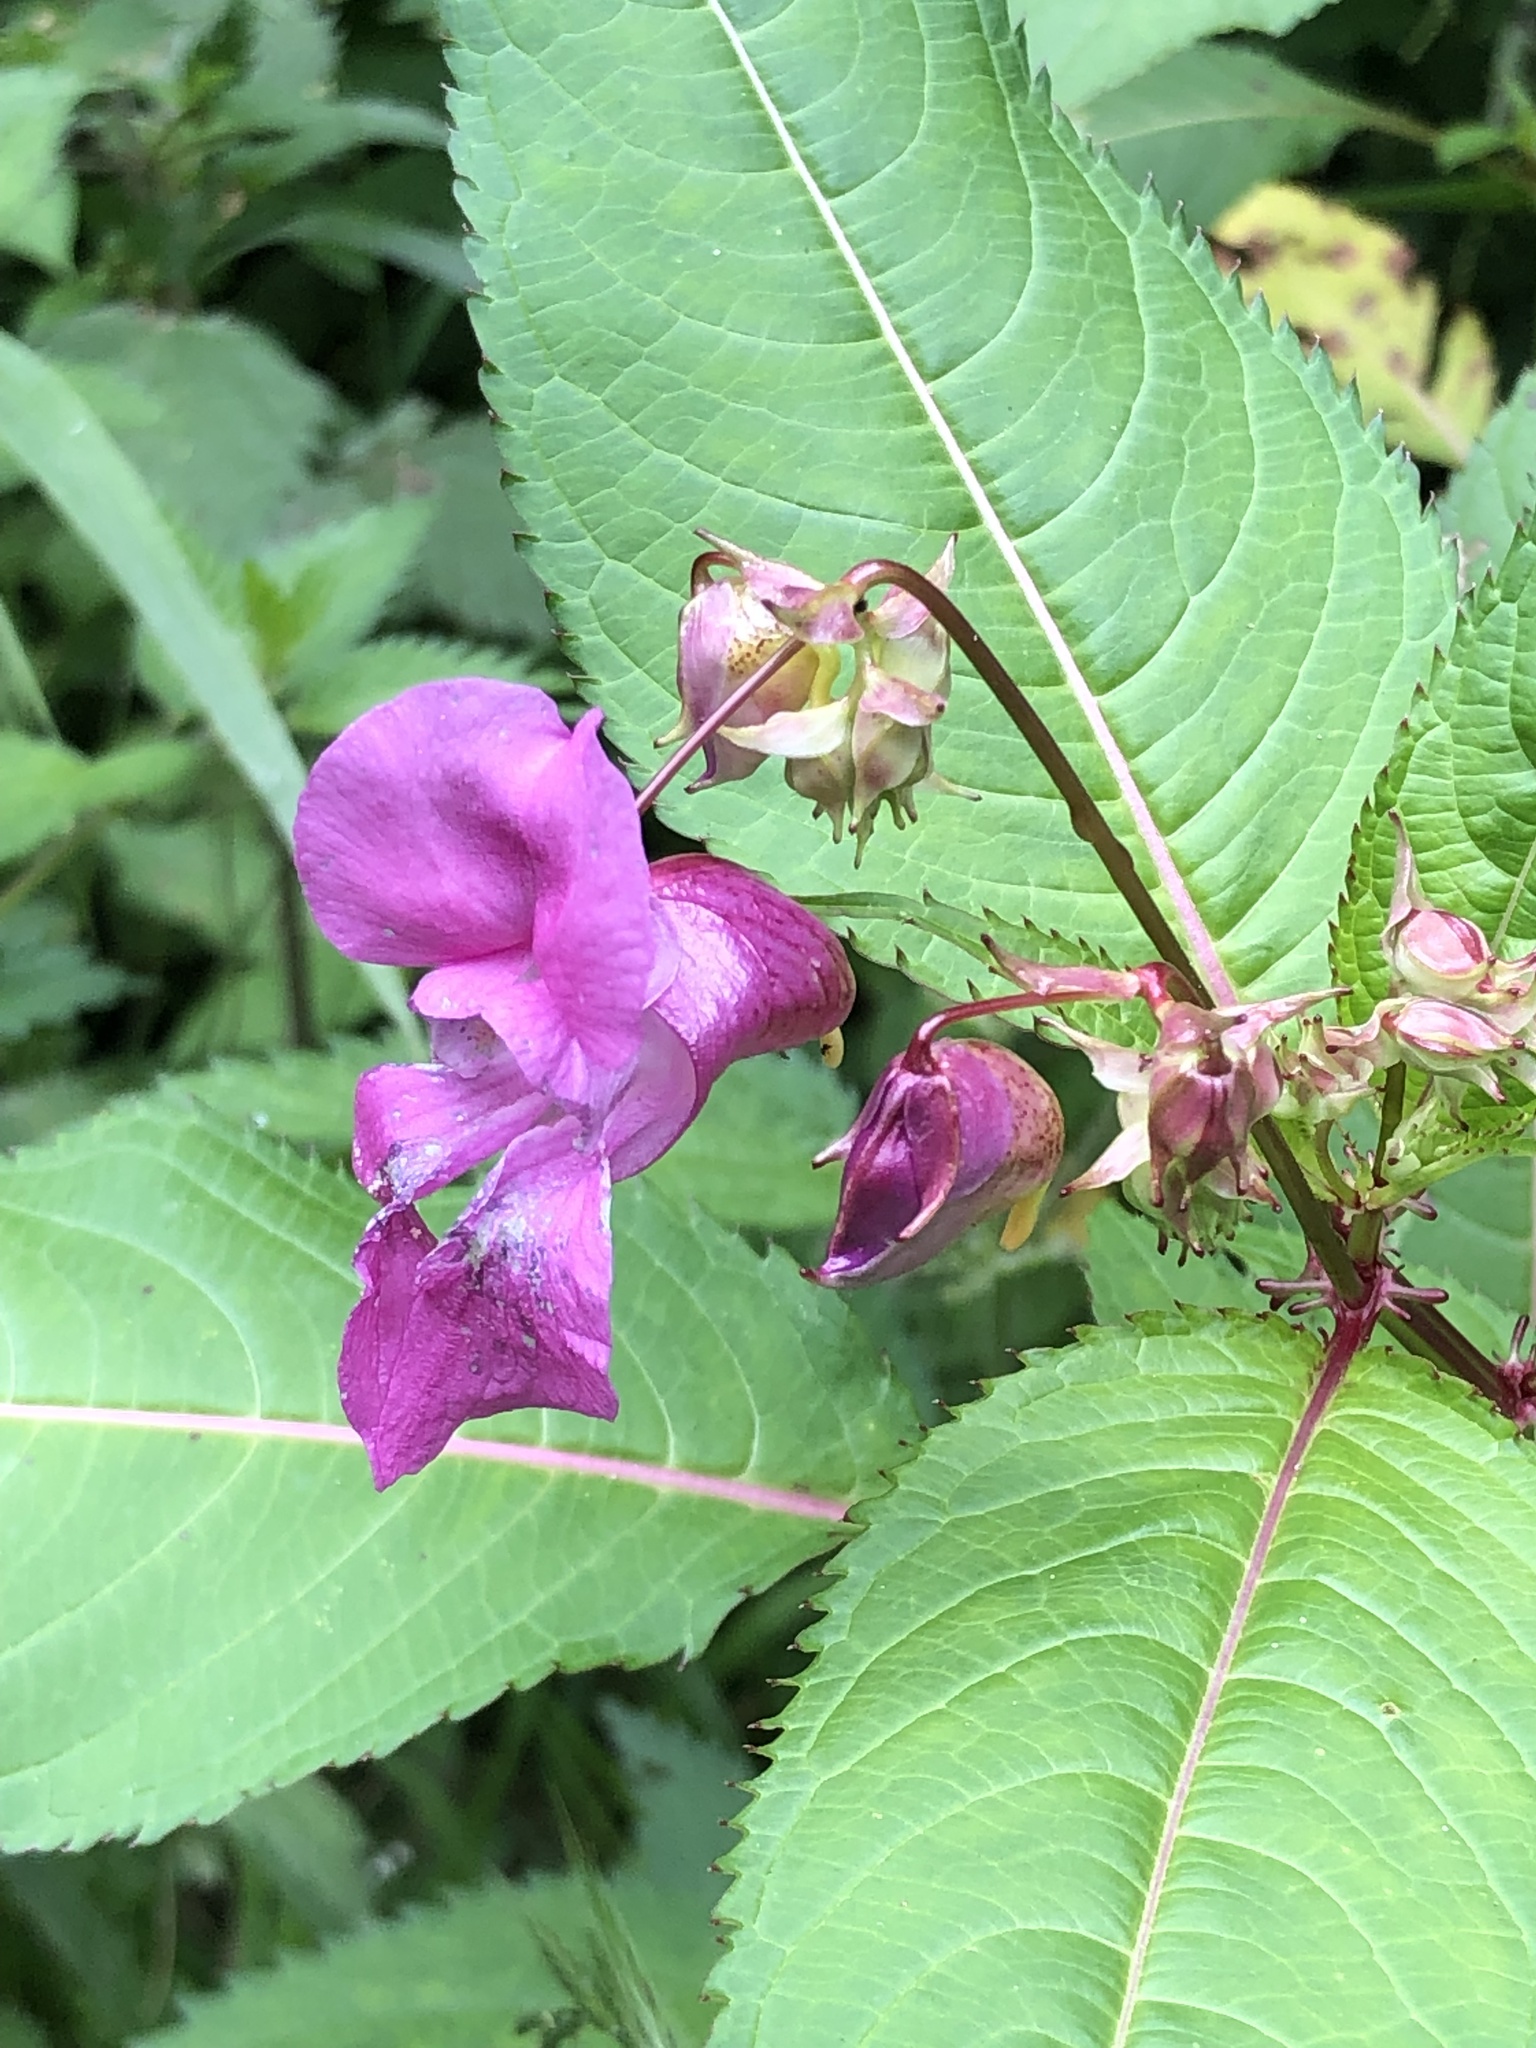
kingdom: Plantae
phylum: Tracheophyta
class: Magnoliopsida
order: Ericales
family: Balsaminaceae
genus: Impatiens
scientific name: Impatiens glandulifera
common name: Himalayan balsam
